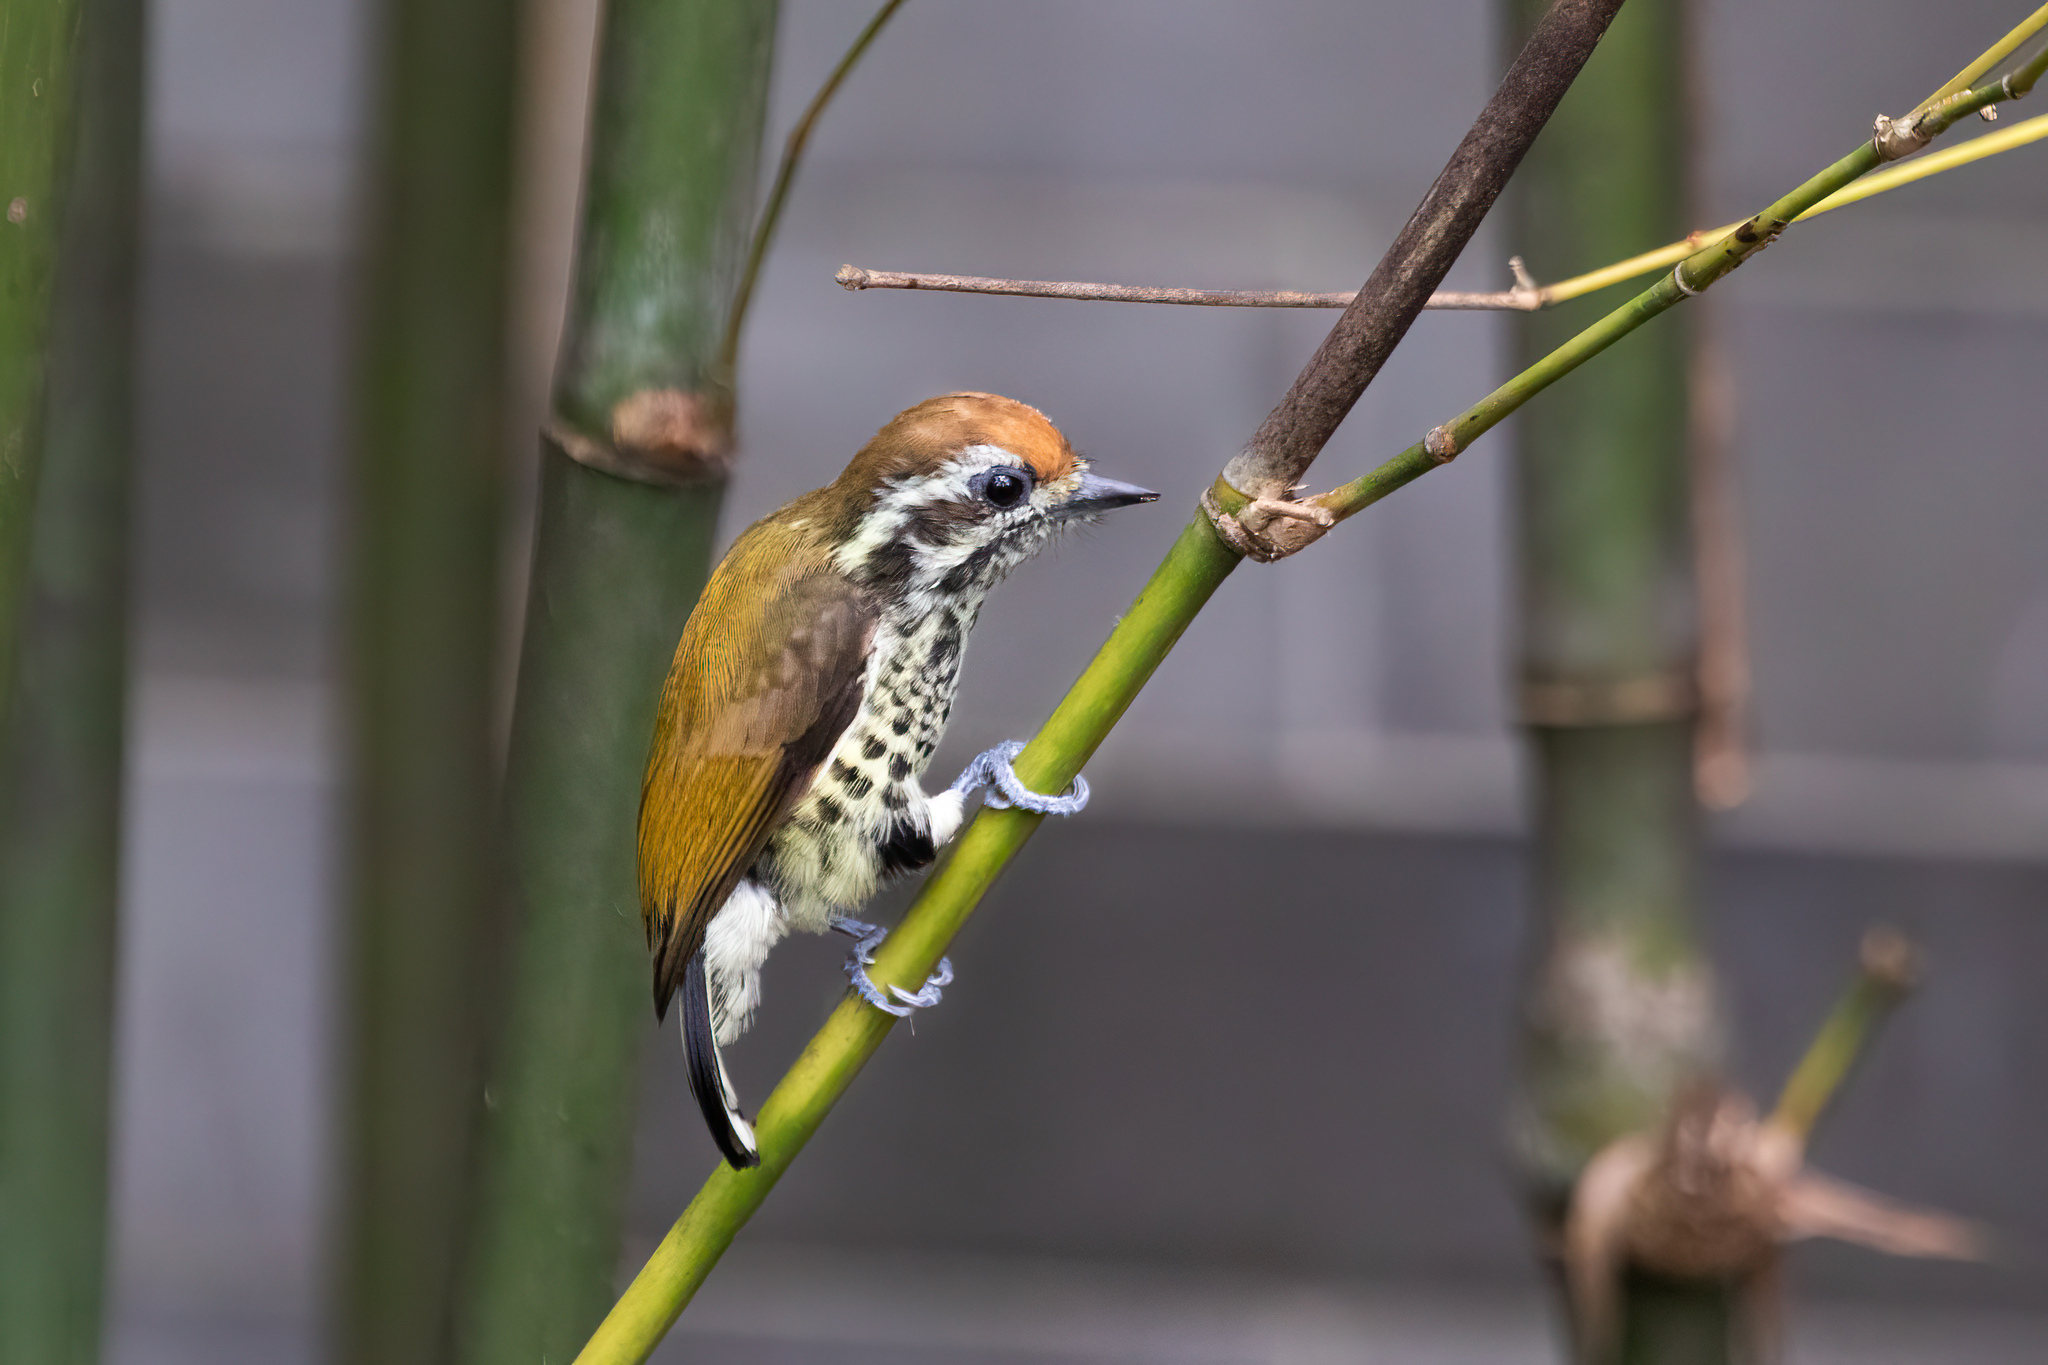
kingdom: Animalia
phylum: Chordata
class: Aves
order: Piciformes
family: Picidae
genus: Picumnus
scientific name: Picumnus innominatus
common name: Speckled piculet
